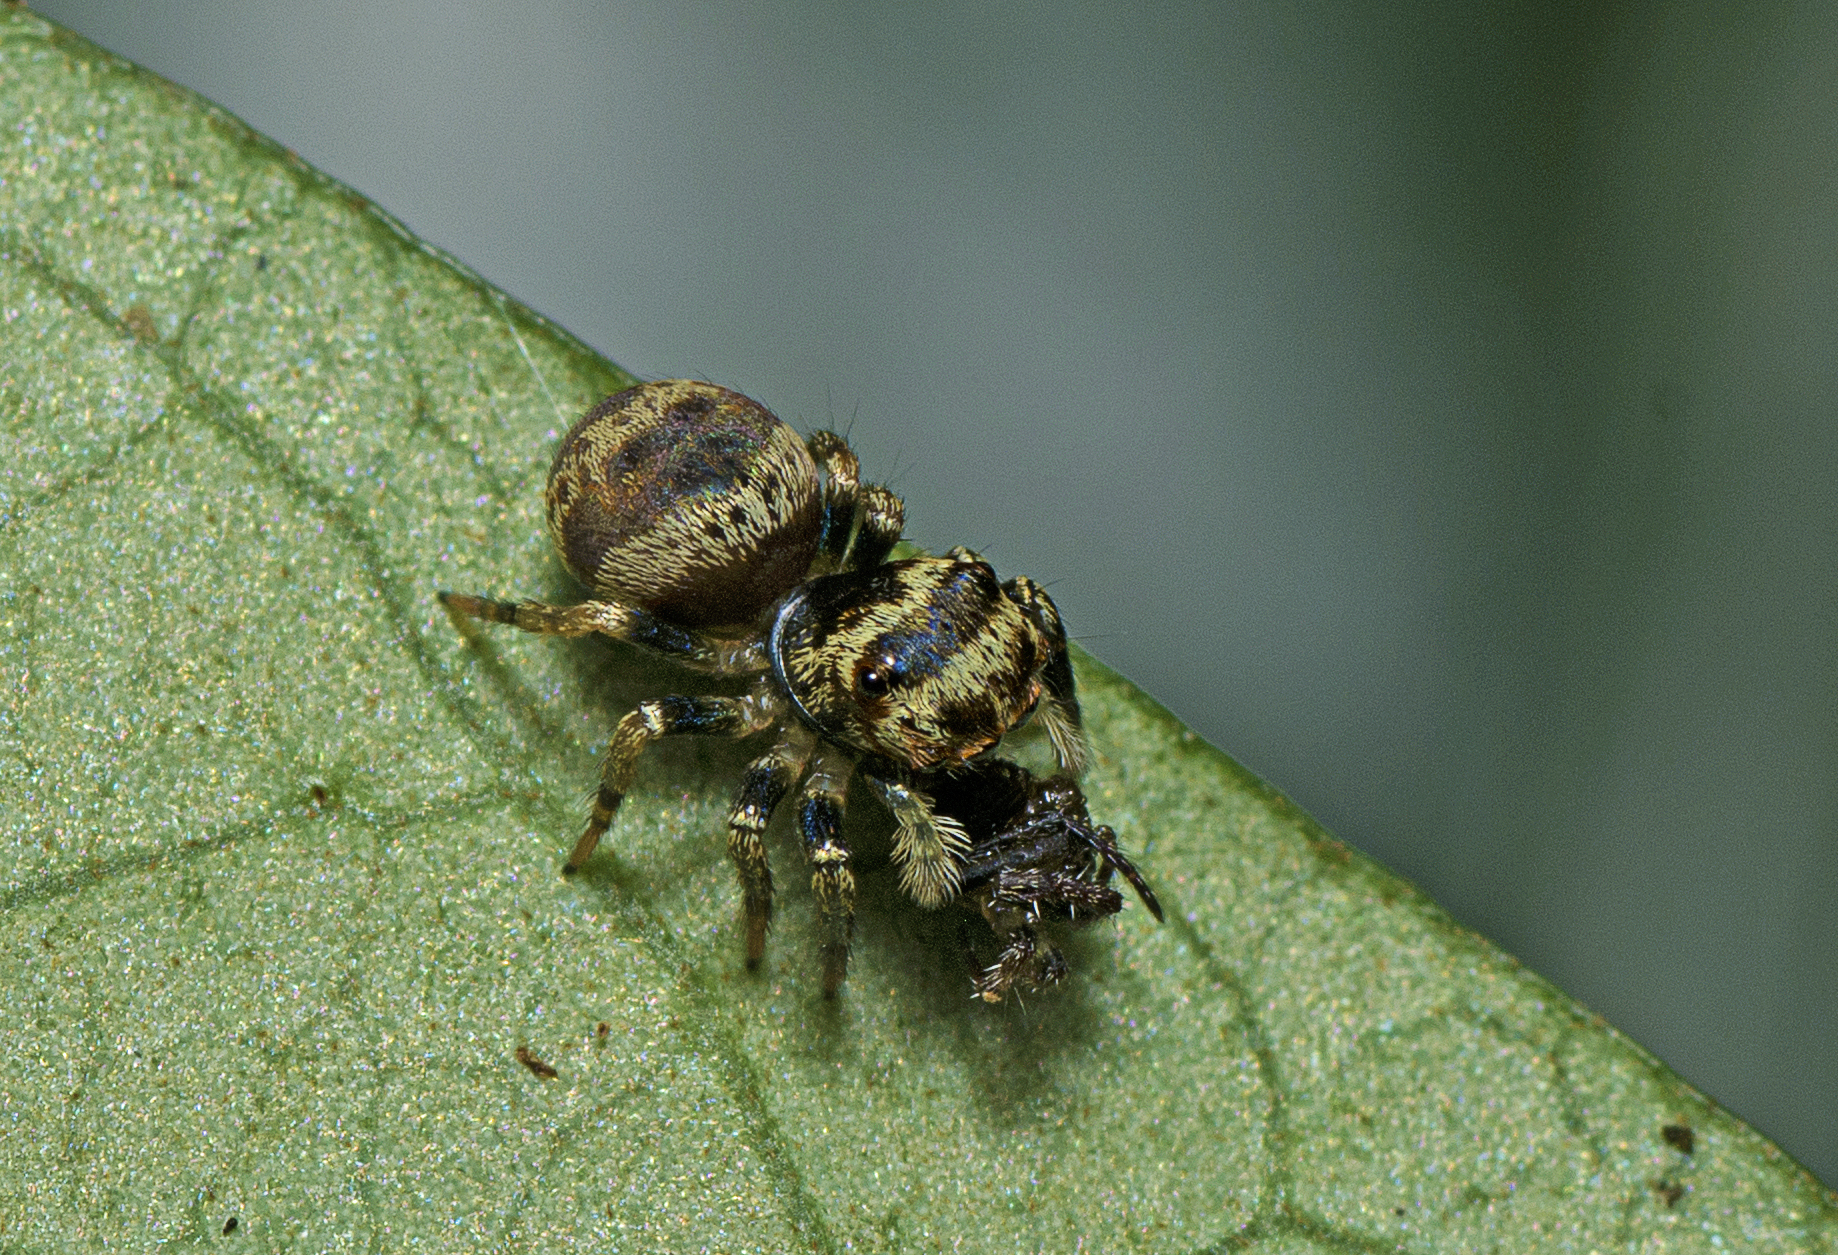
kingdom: Animalia
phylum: Arthropoda
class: Arachnida
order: Araneae
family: Salticidae
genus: Euryattus
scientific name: Euryattus bleekeri
